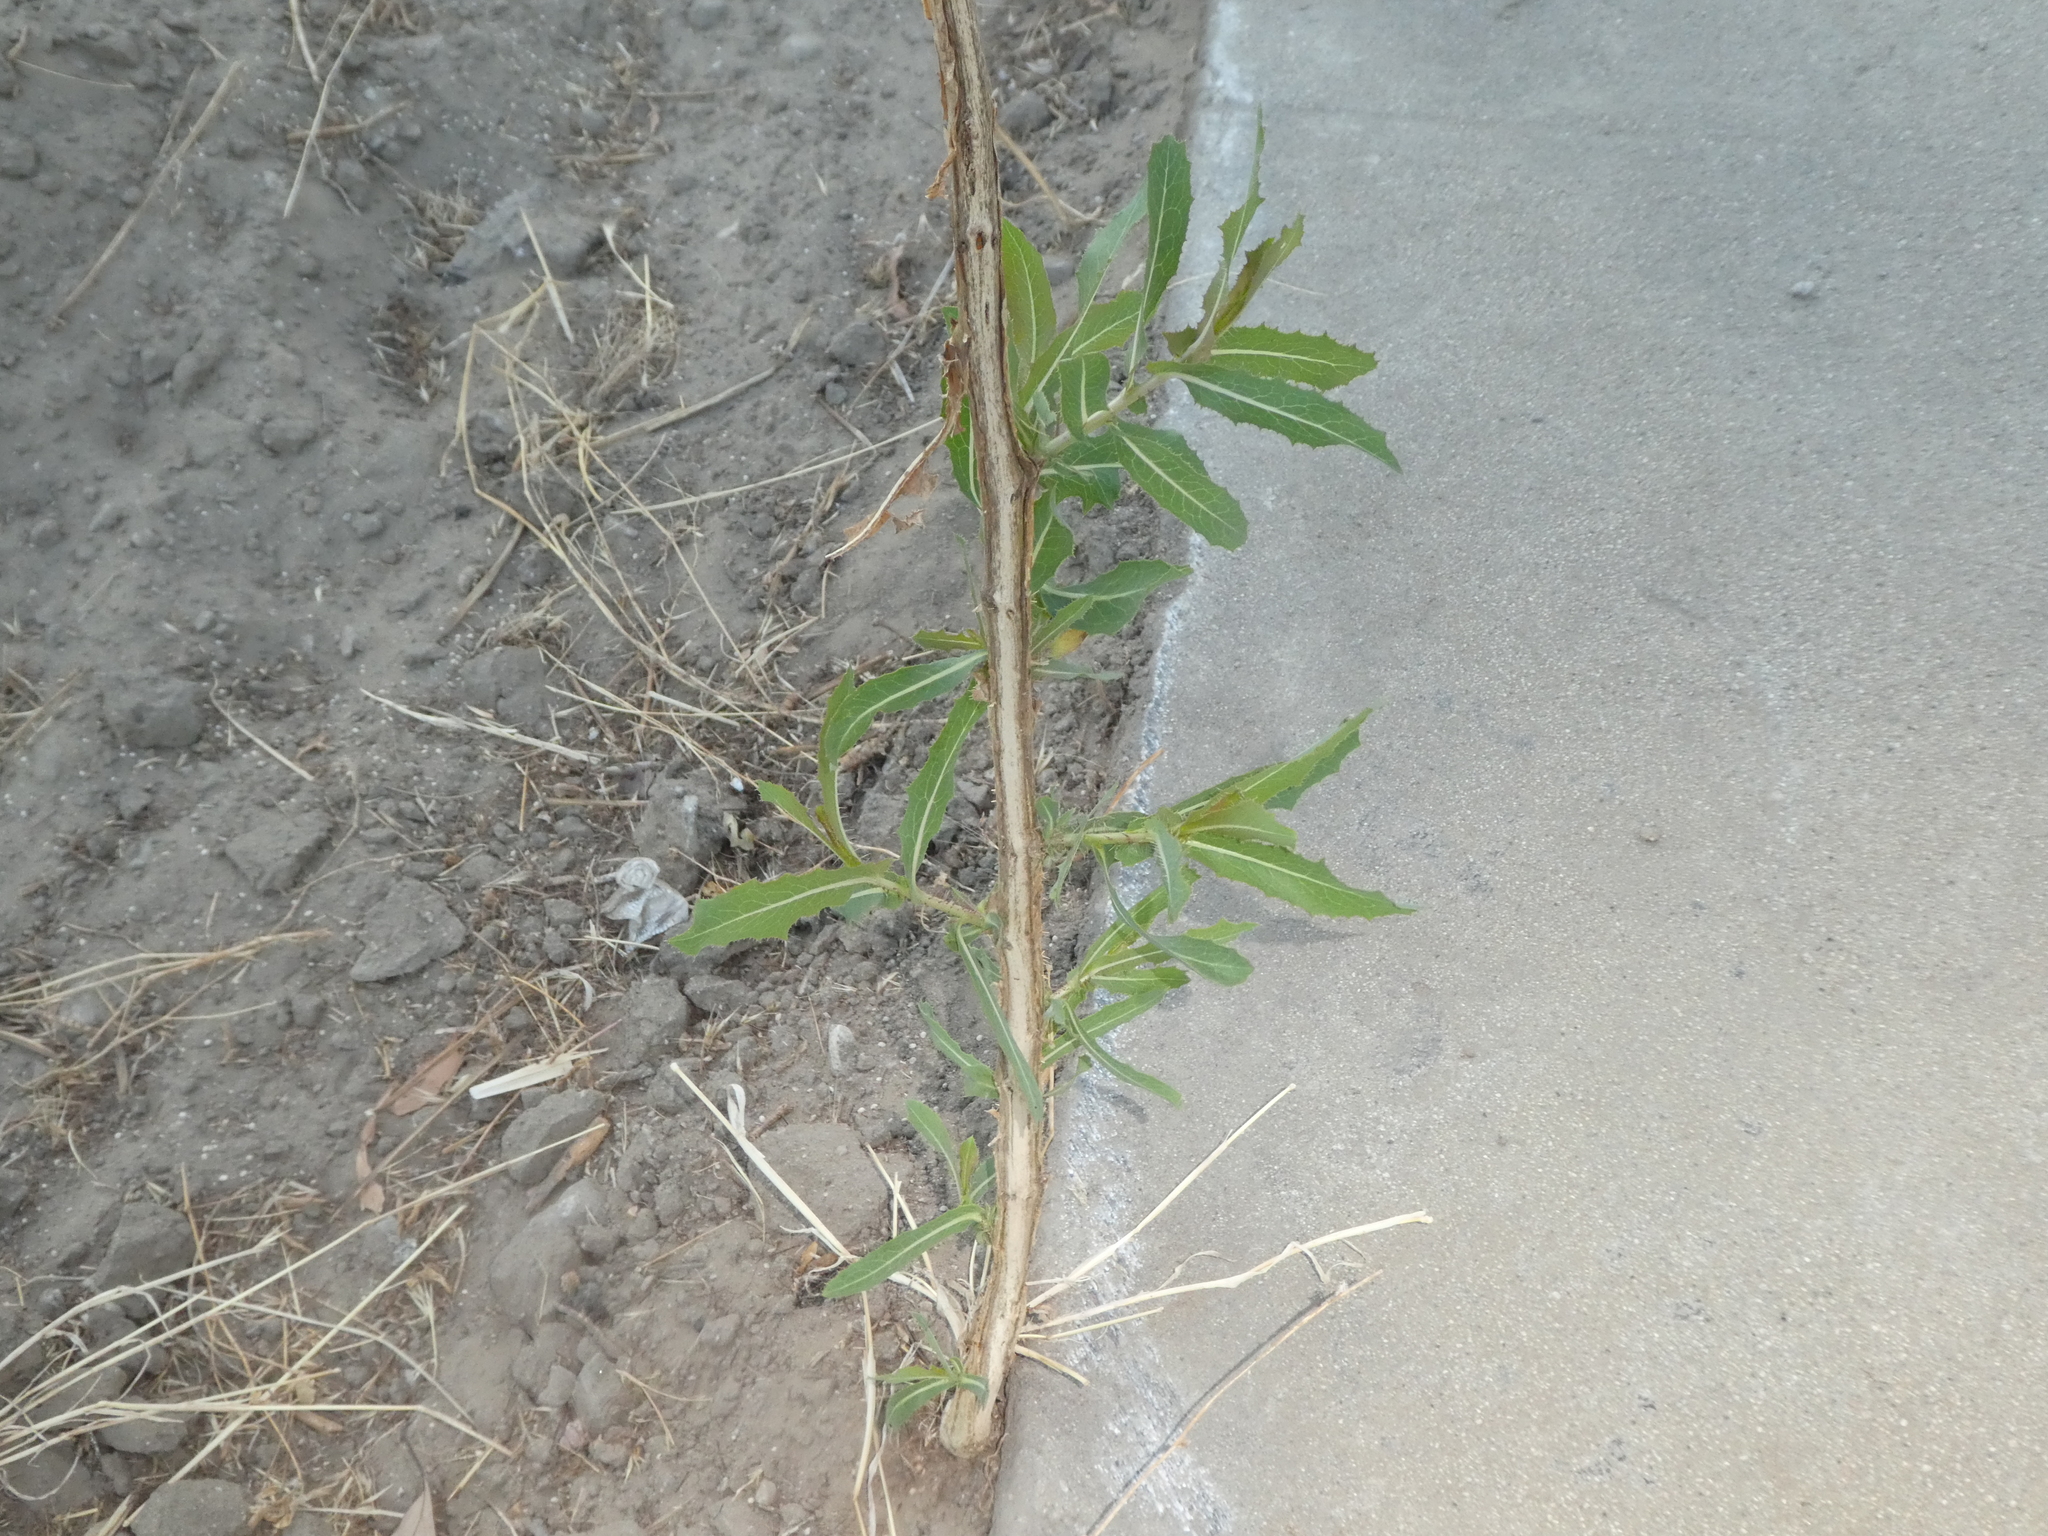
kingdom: Plantae
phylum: Tracheophyta
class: Magnoliopsida
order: Asterales
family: Asteraceae
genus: Lactuca
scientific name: Lactuca serriola
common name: Prickly lettuce
